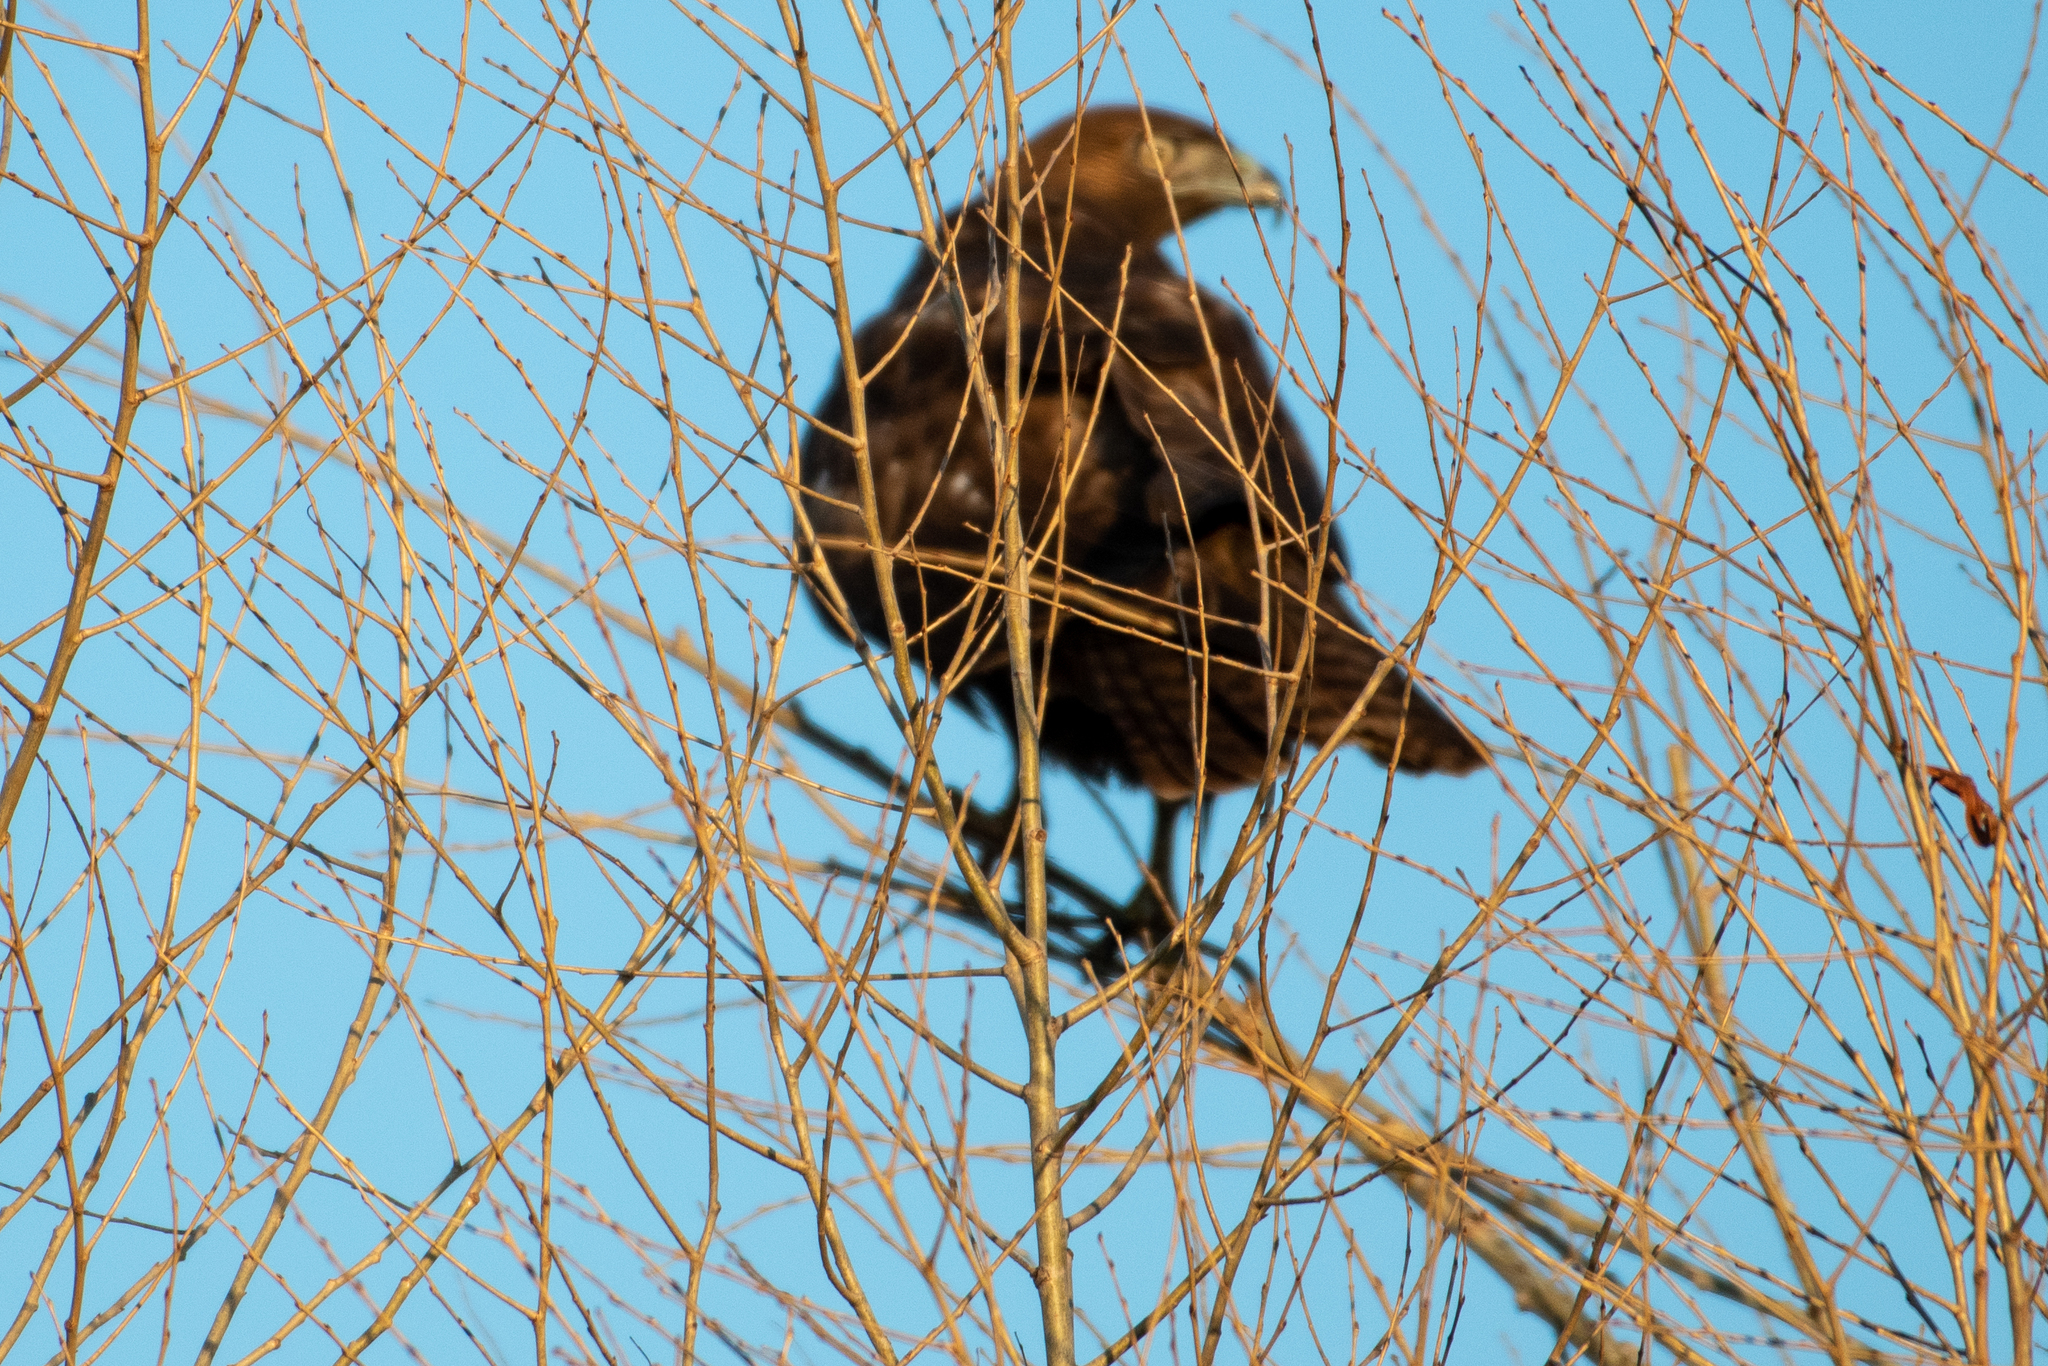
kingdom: Animalia
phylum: Chordata
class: Aves
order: Accipitriformes
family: Accipitridae
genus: Buteo
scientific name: Buteo jamaicensis
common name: Red-tailed hawk
